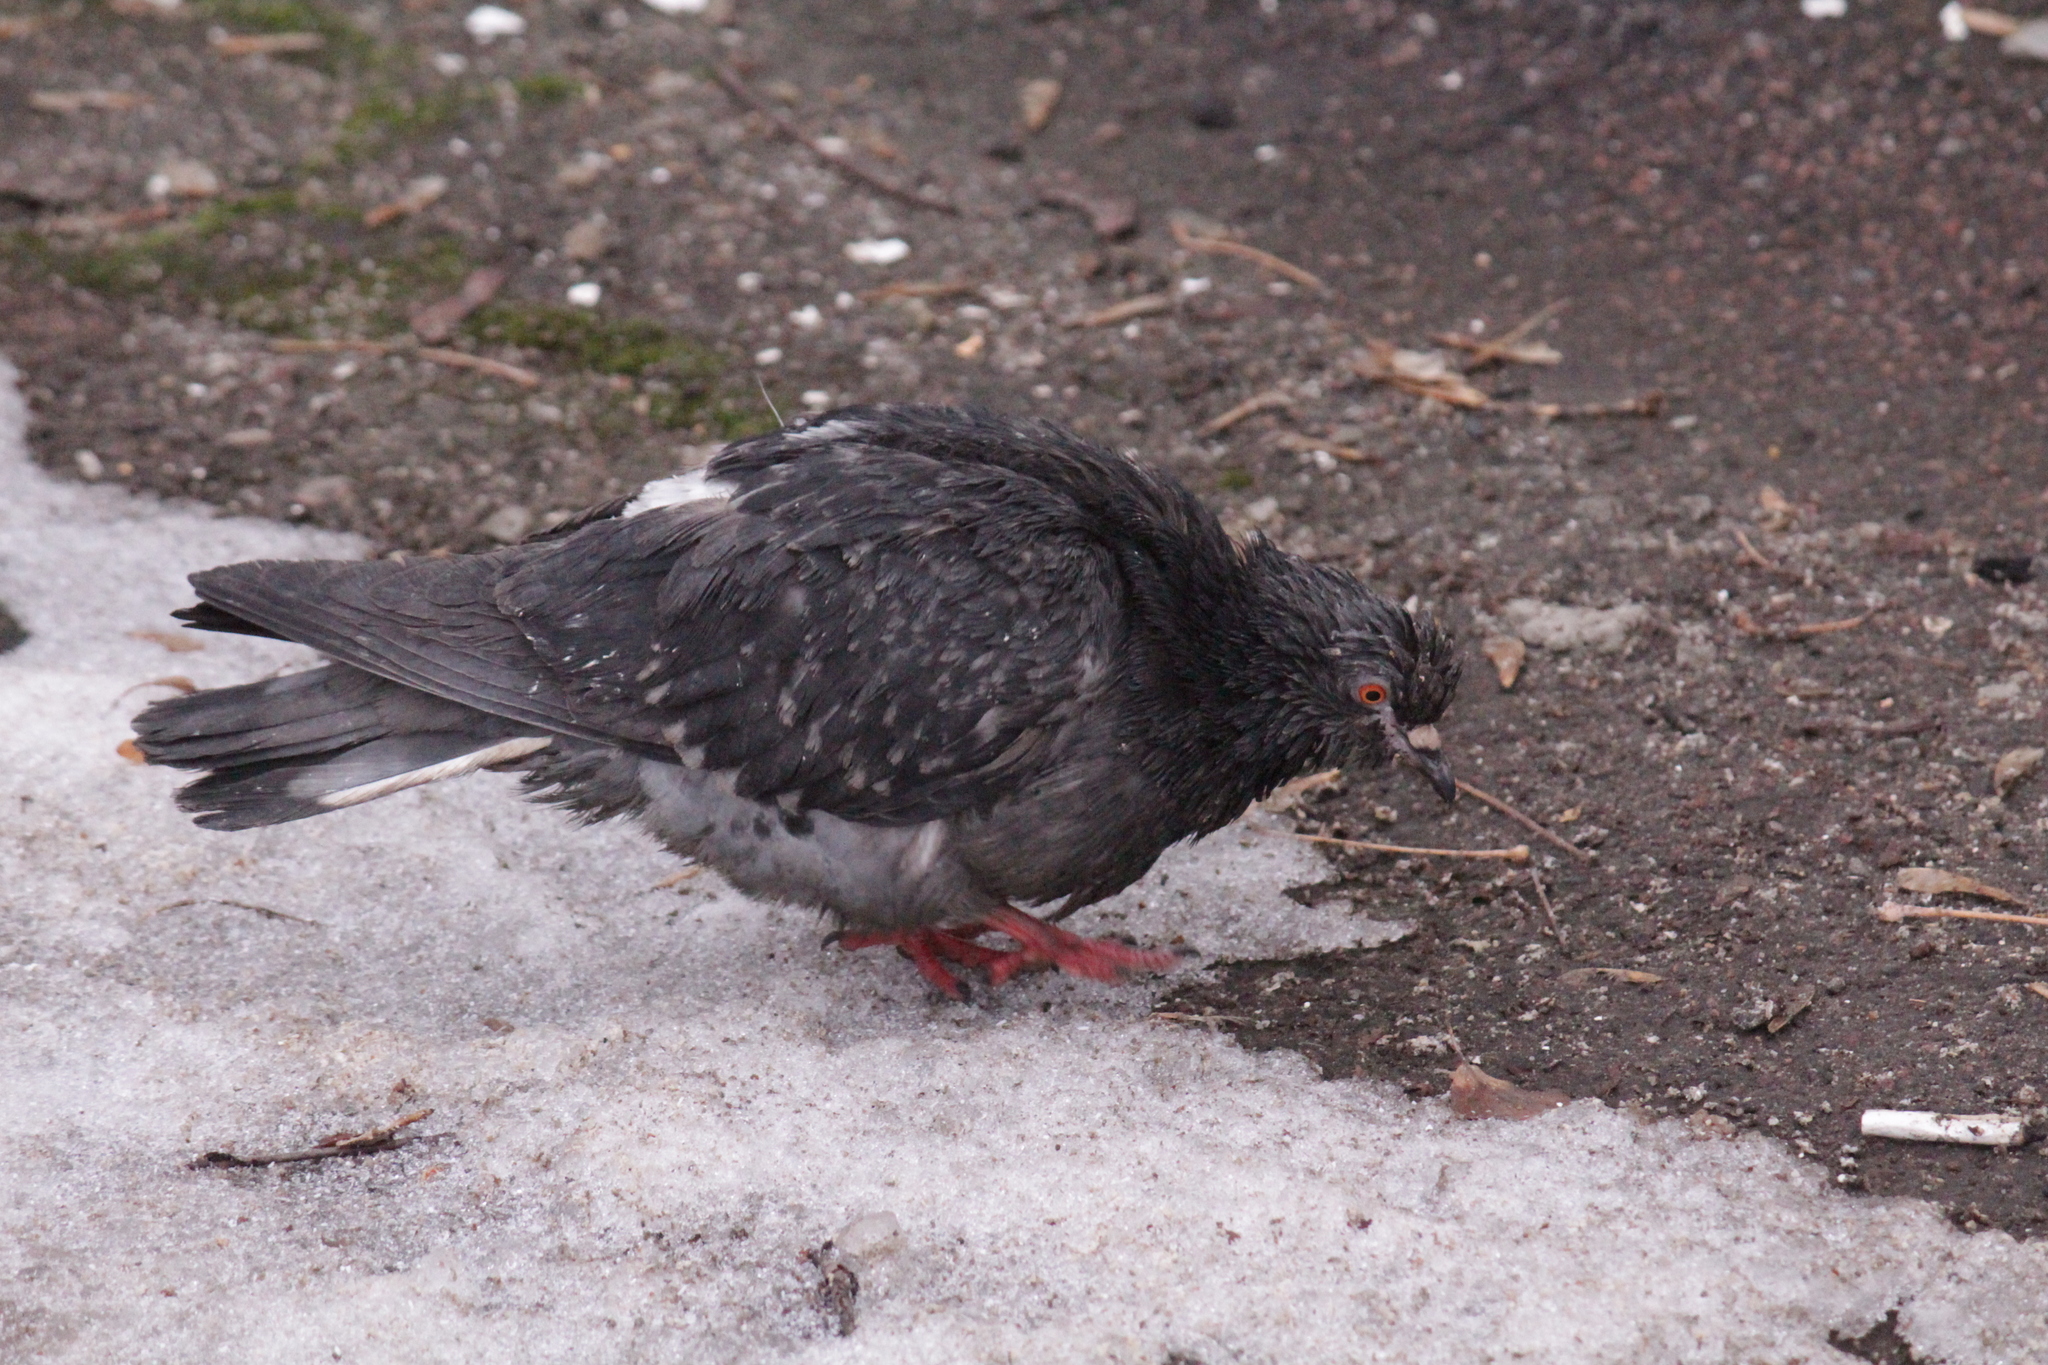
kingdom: Animalia
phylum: Chordata
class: Aves
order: Columbiformes
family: Columbidae
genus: Columba
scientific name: Columba livia
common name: Rock pigeon
